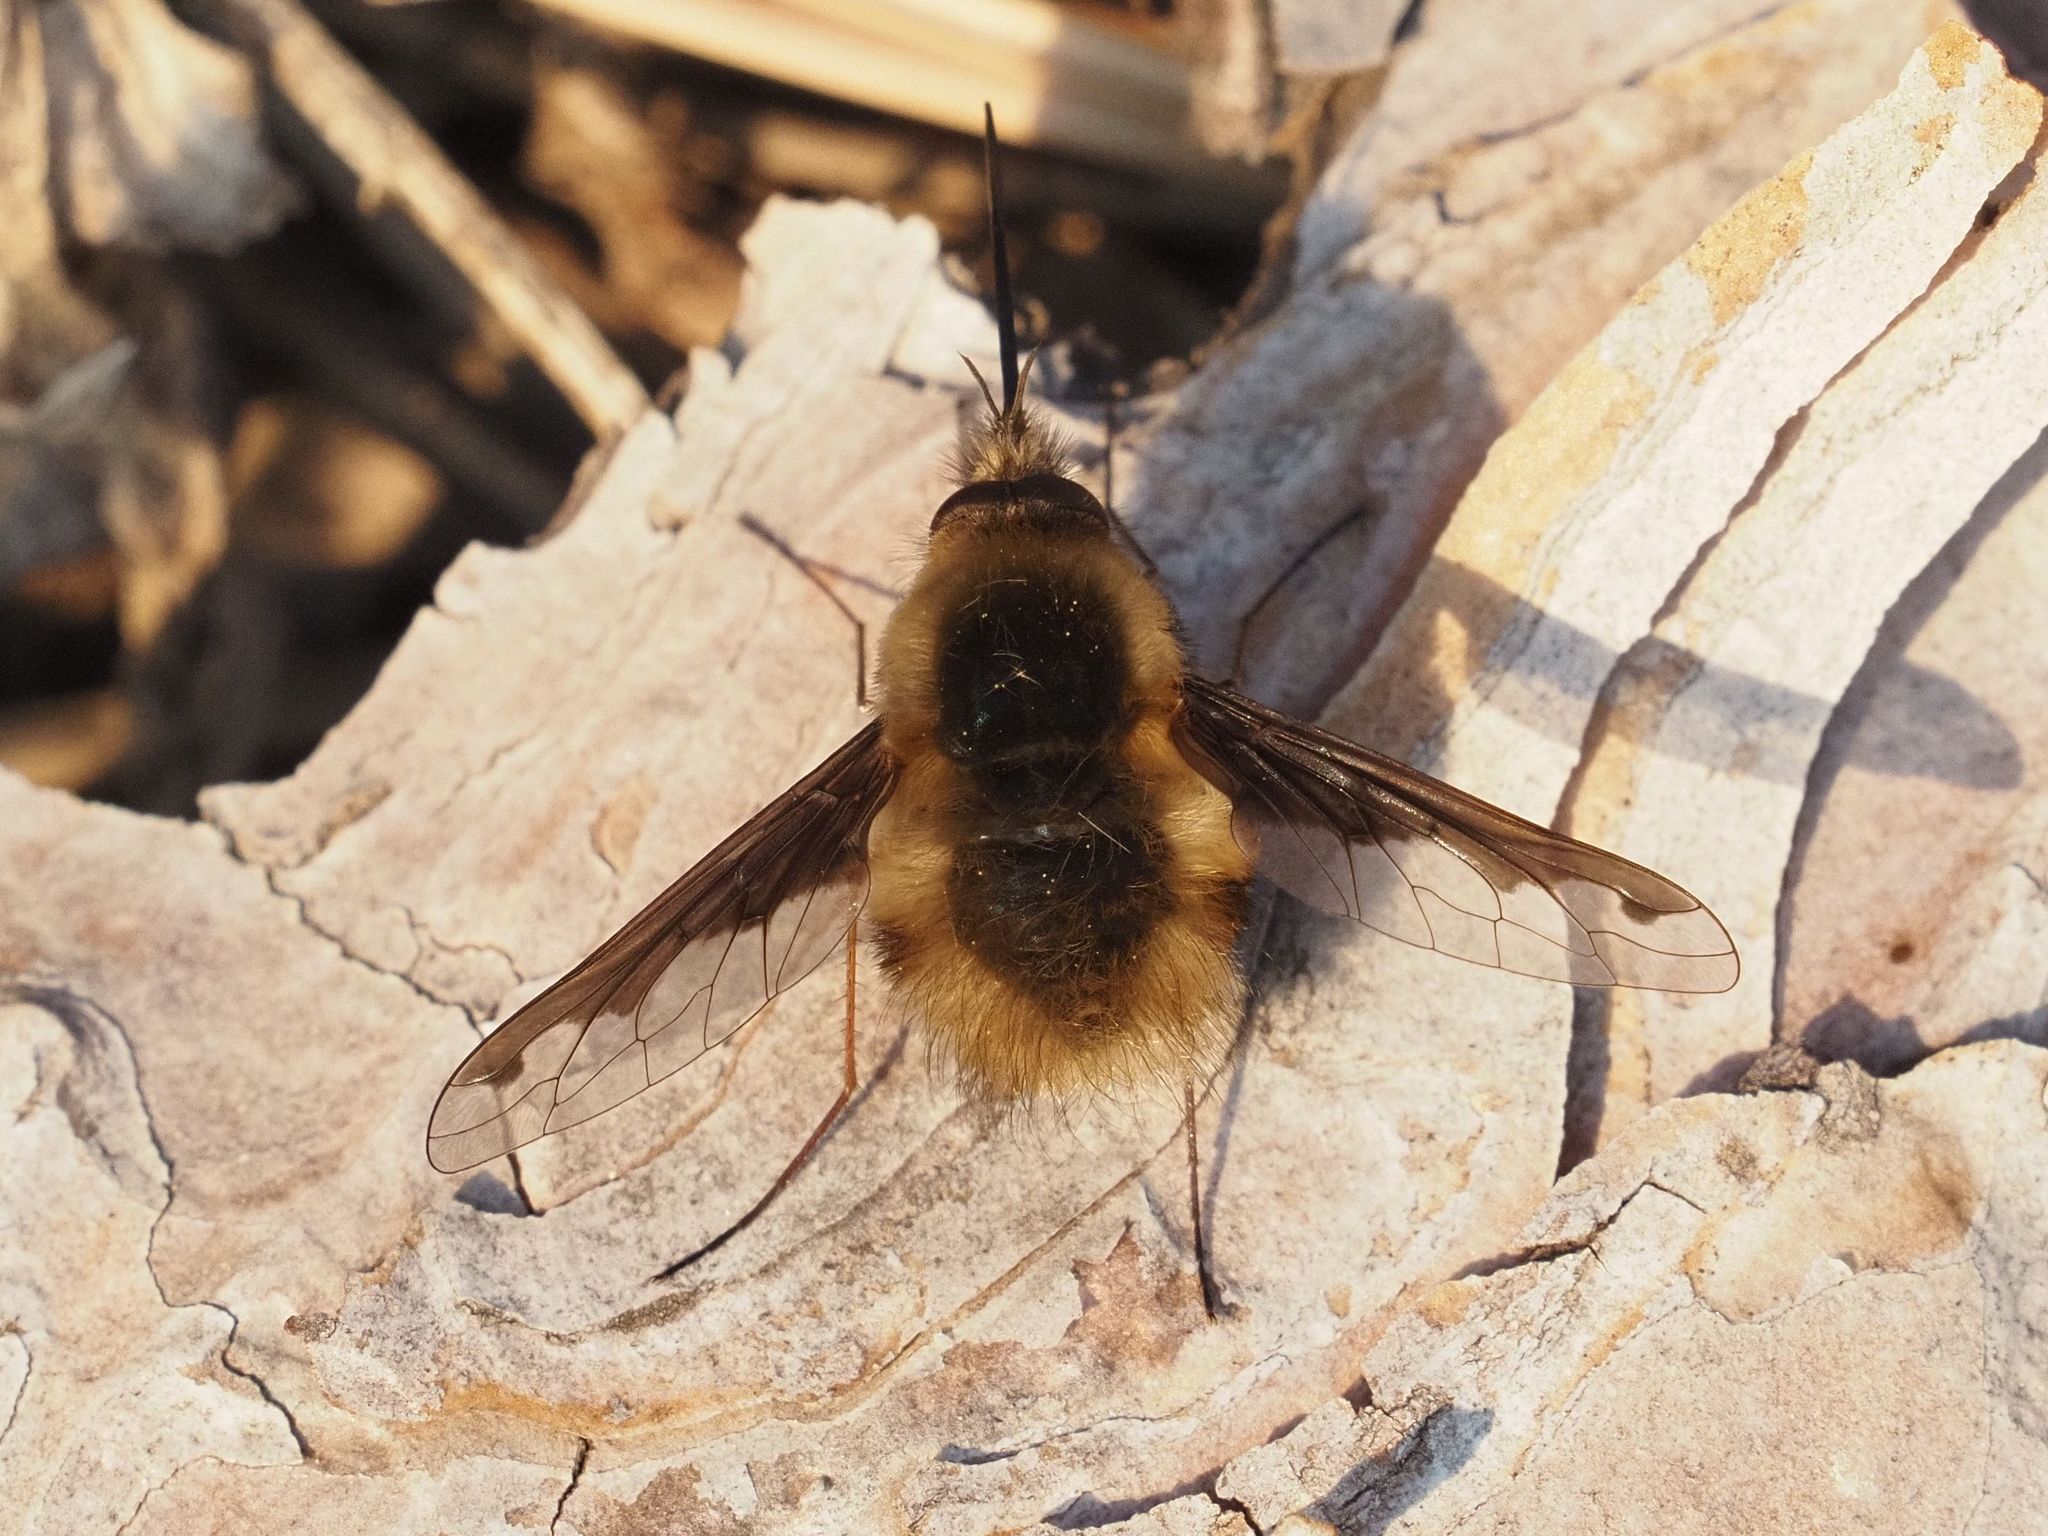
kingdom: Animalia
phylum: Arthropoda
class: Insecta
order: Diptera
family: Bombyliidae
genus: Bombylius
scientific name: Bombylius major
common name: Bee fly
